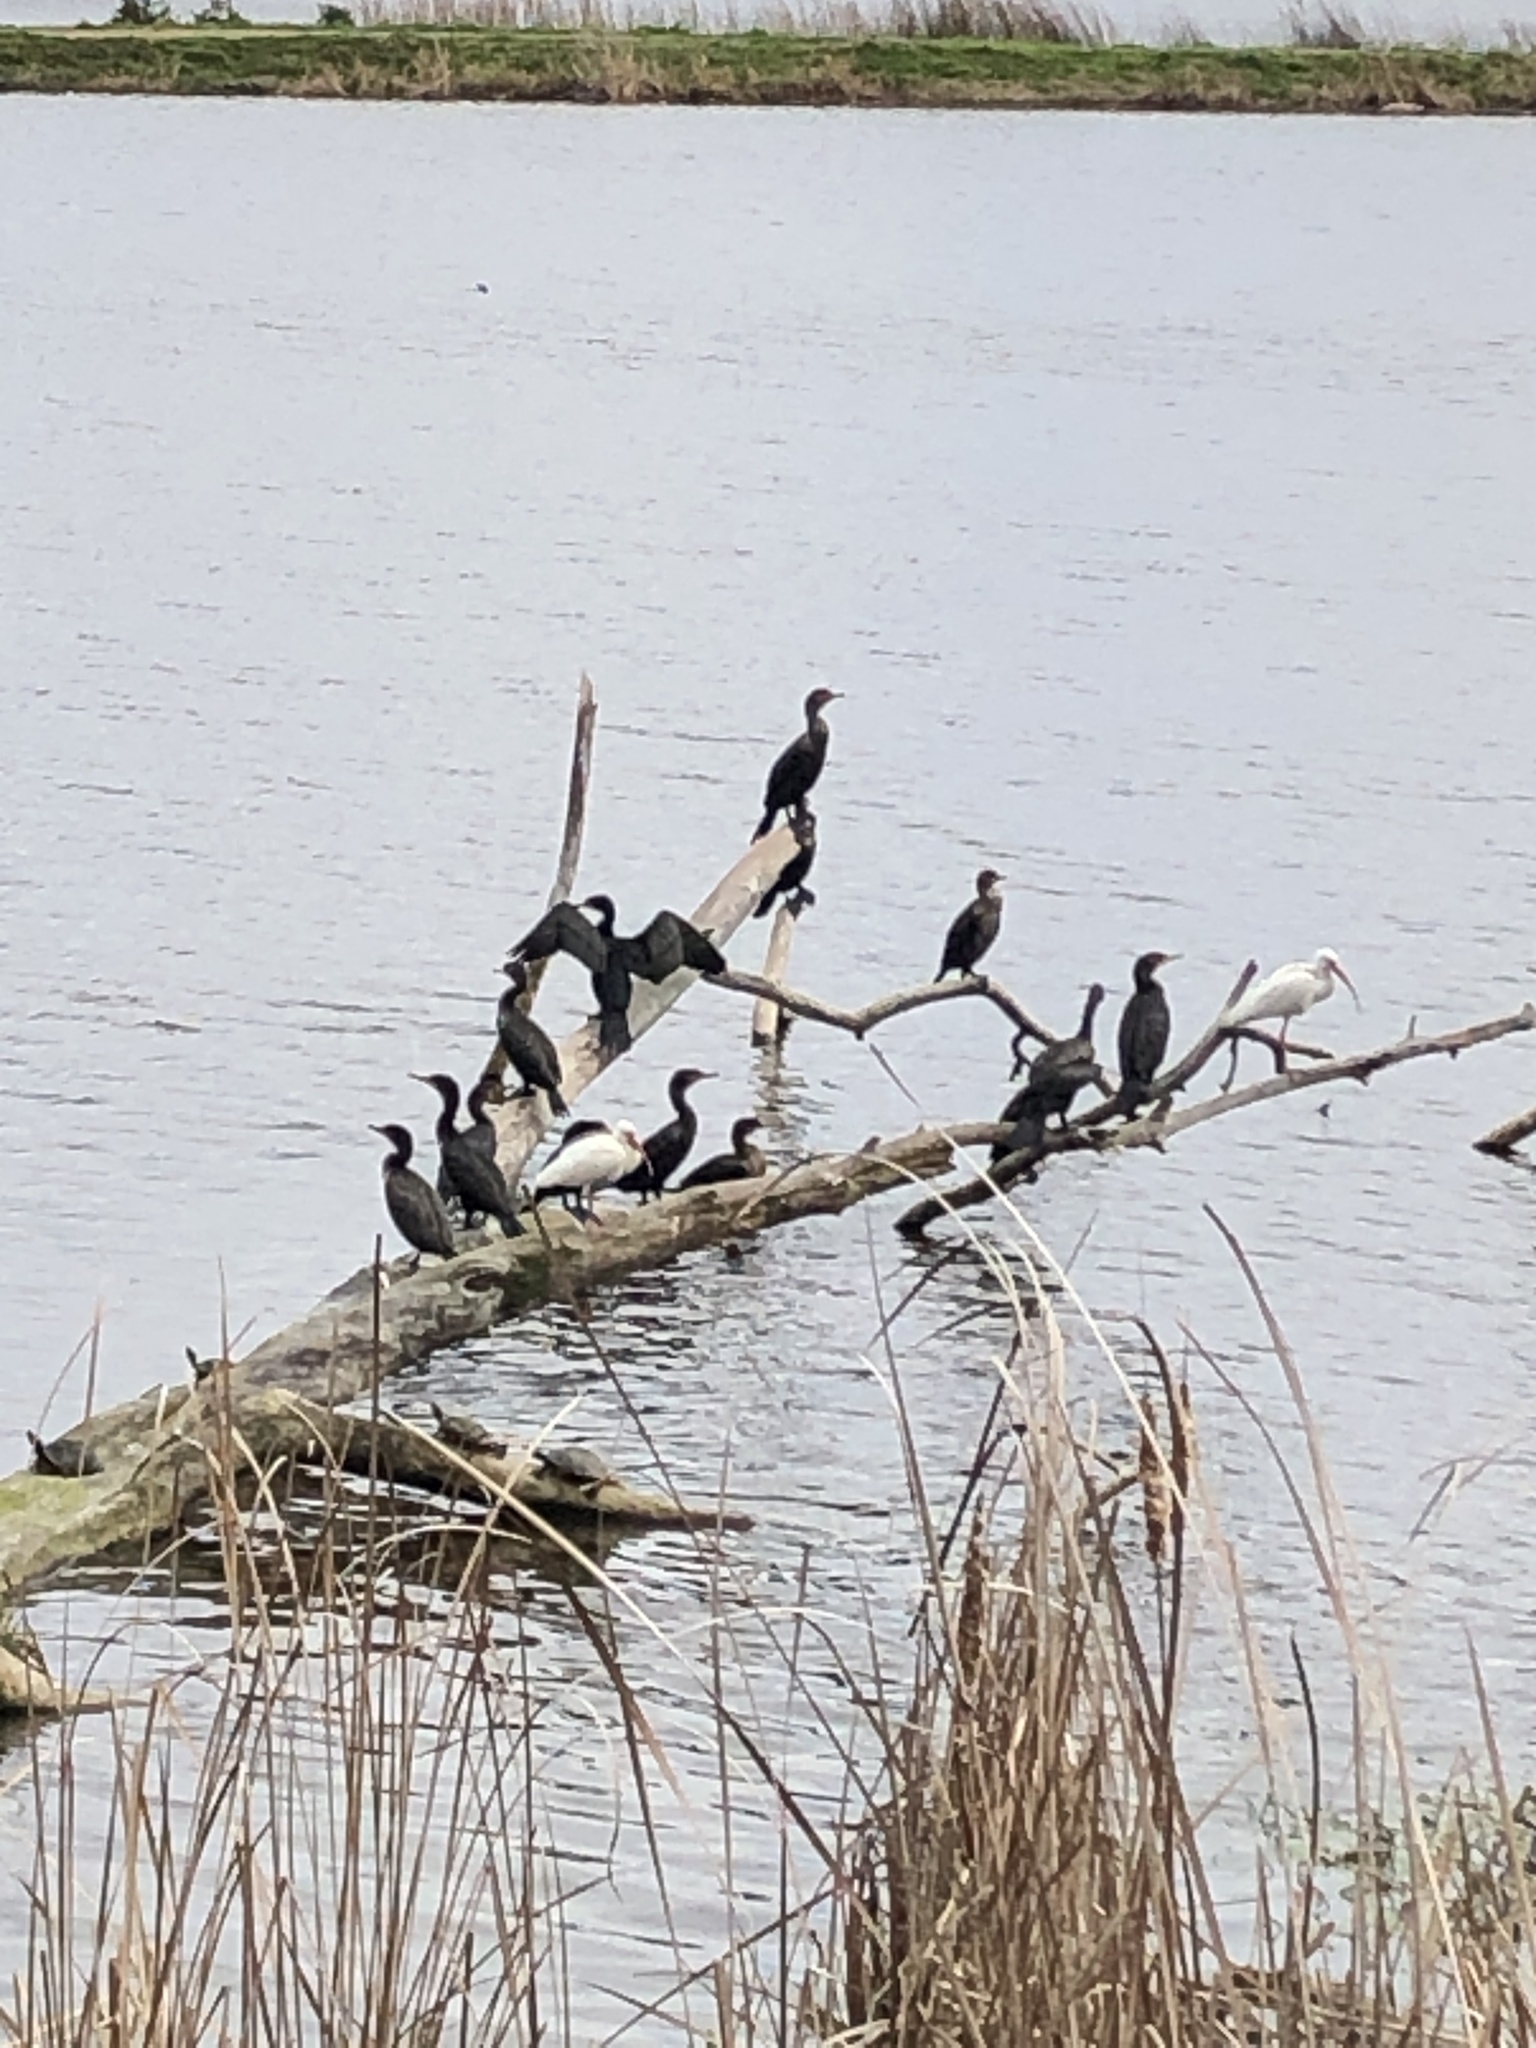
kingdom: Animalia
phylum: Chordata
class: Aves
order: Suliformes
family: Phalacrocoracidae
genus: Phalacrocorax
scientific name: Phalacrocorax auritus
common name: Double-crested cormorant
